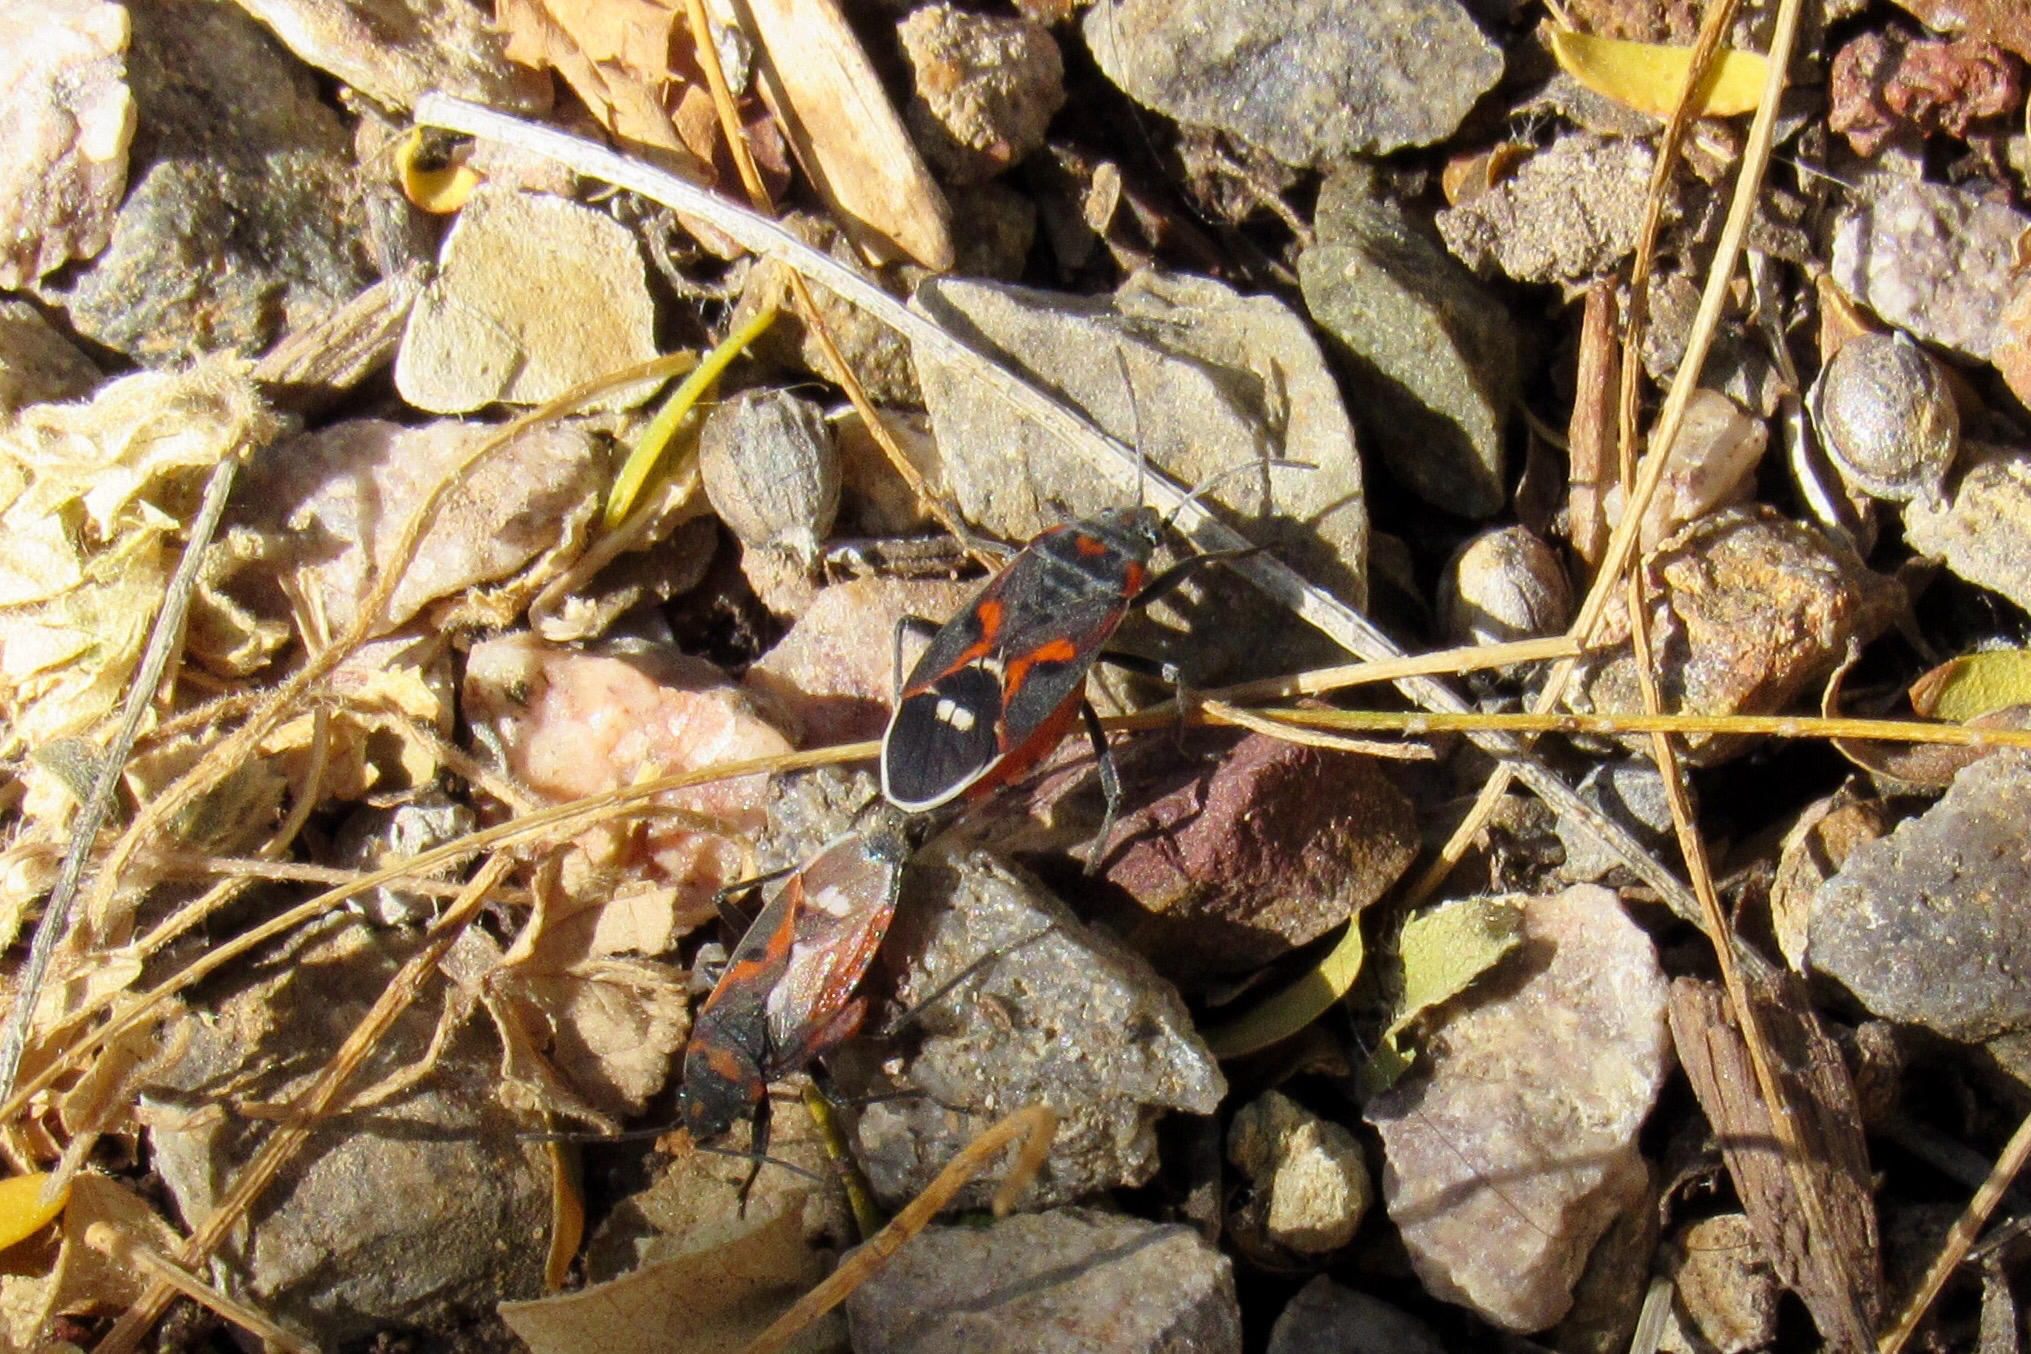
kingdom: Animalia
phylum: Arthropoda
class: Insecta
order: Hemiptera
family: Lygaeidae
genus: Lygaeus
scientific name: Lygaeus kalmii
